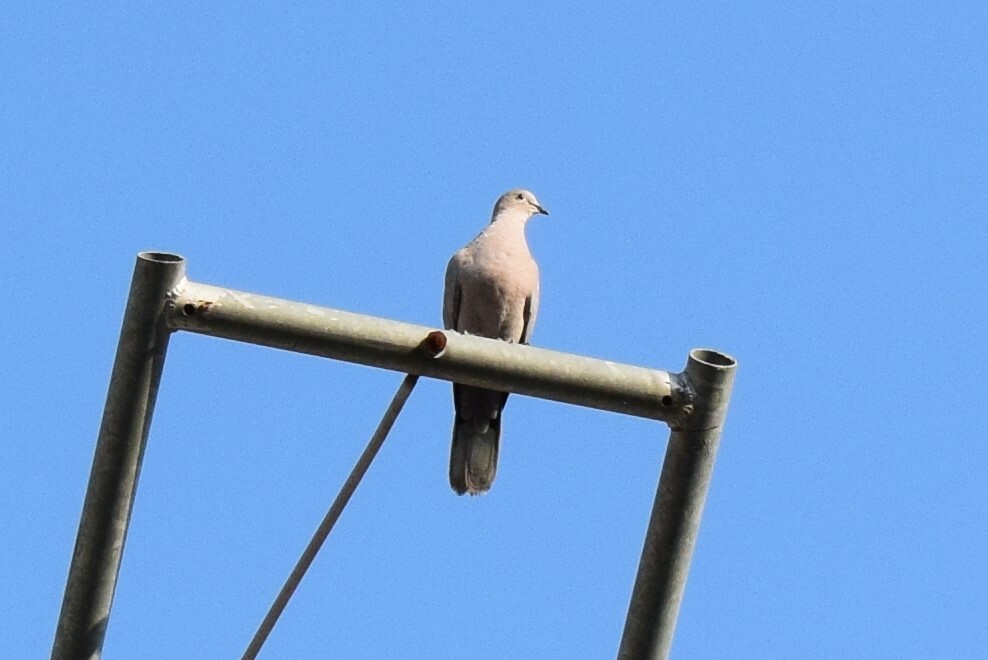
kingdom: Animalia
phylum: Chordata
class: Aves
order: Columbiformes
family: Columbidae
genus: Streptopelia
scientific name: Streptopelia decaocto
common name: Eurasian collared dove
